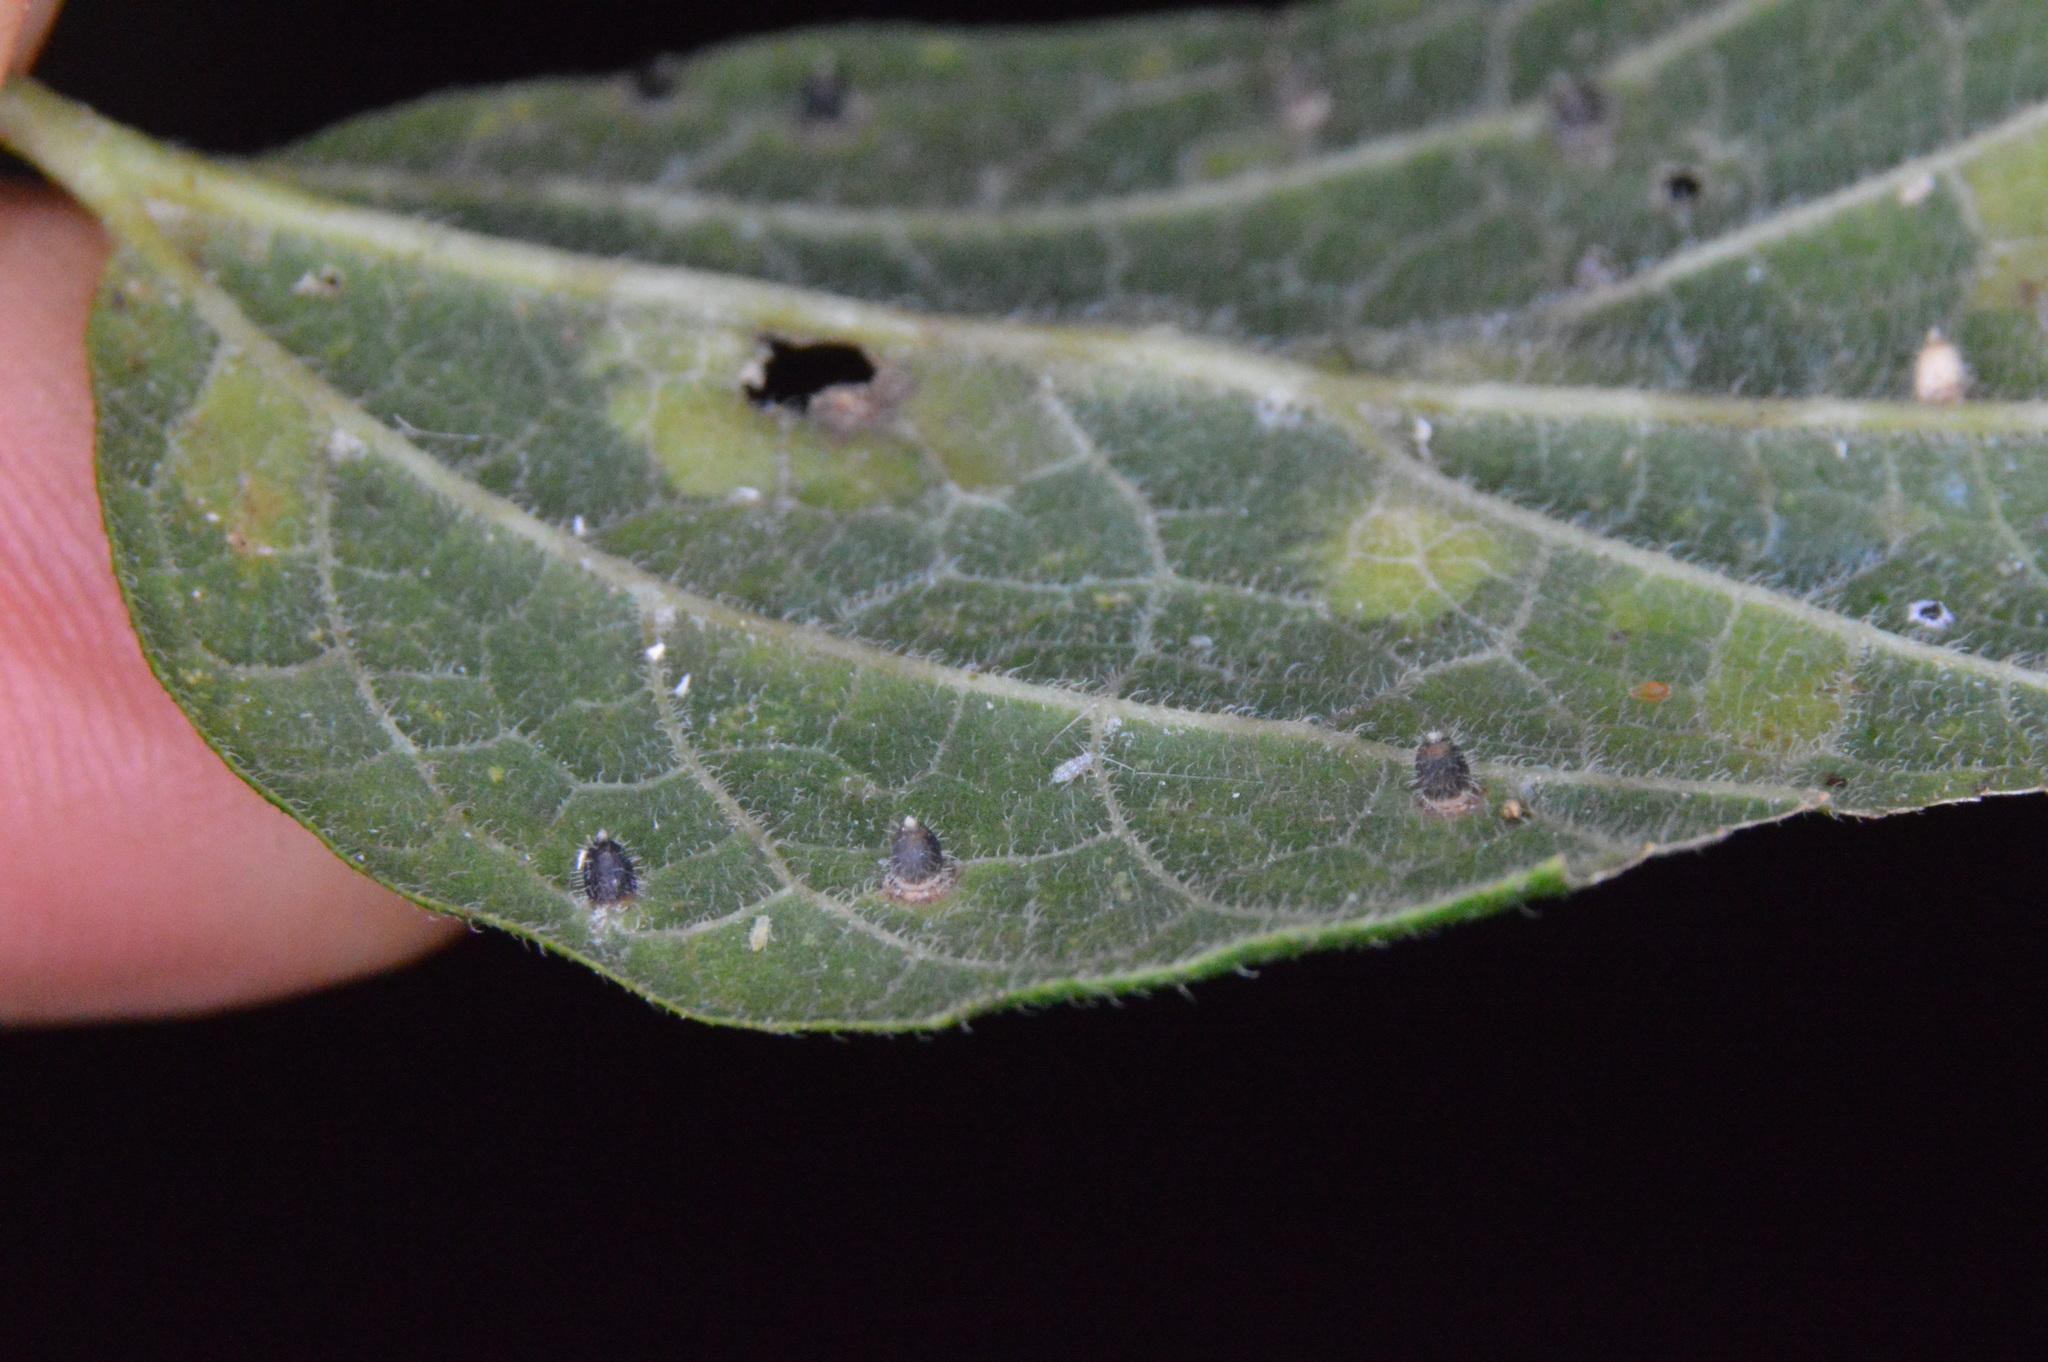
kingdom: Animalia
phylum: Arthropoda
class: Insecta
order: Diptera
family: Cecidomyiidae
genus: Celticecis
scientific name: Celticecis cupiformis
